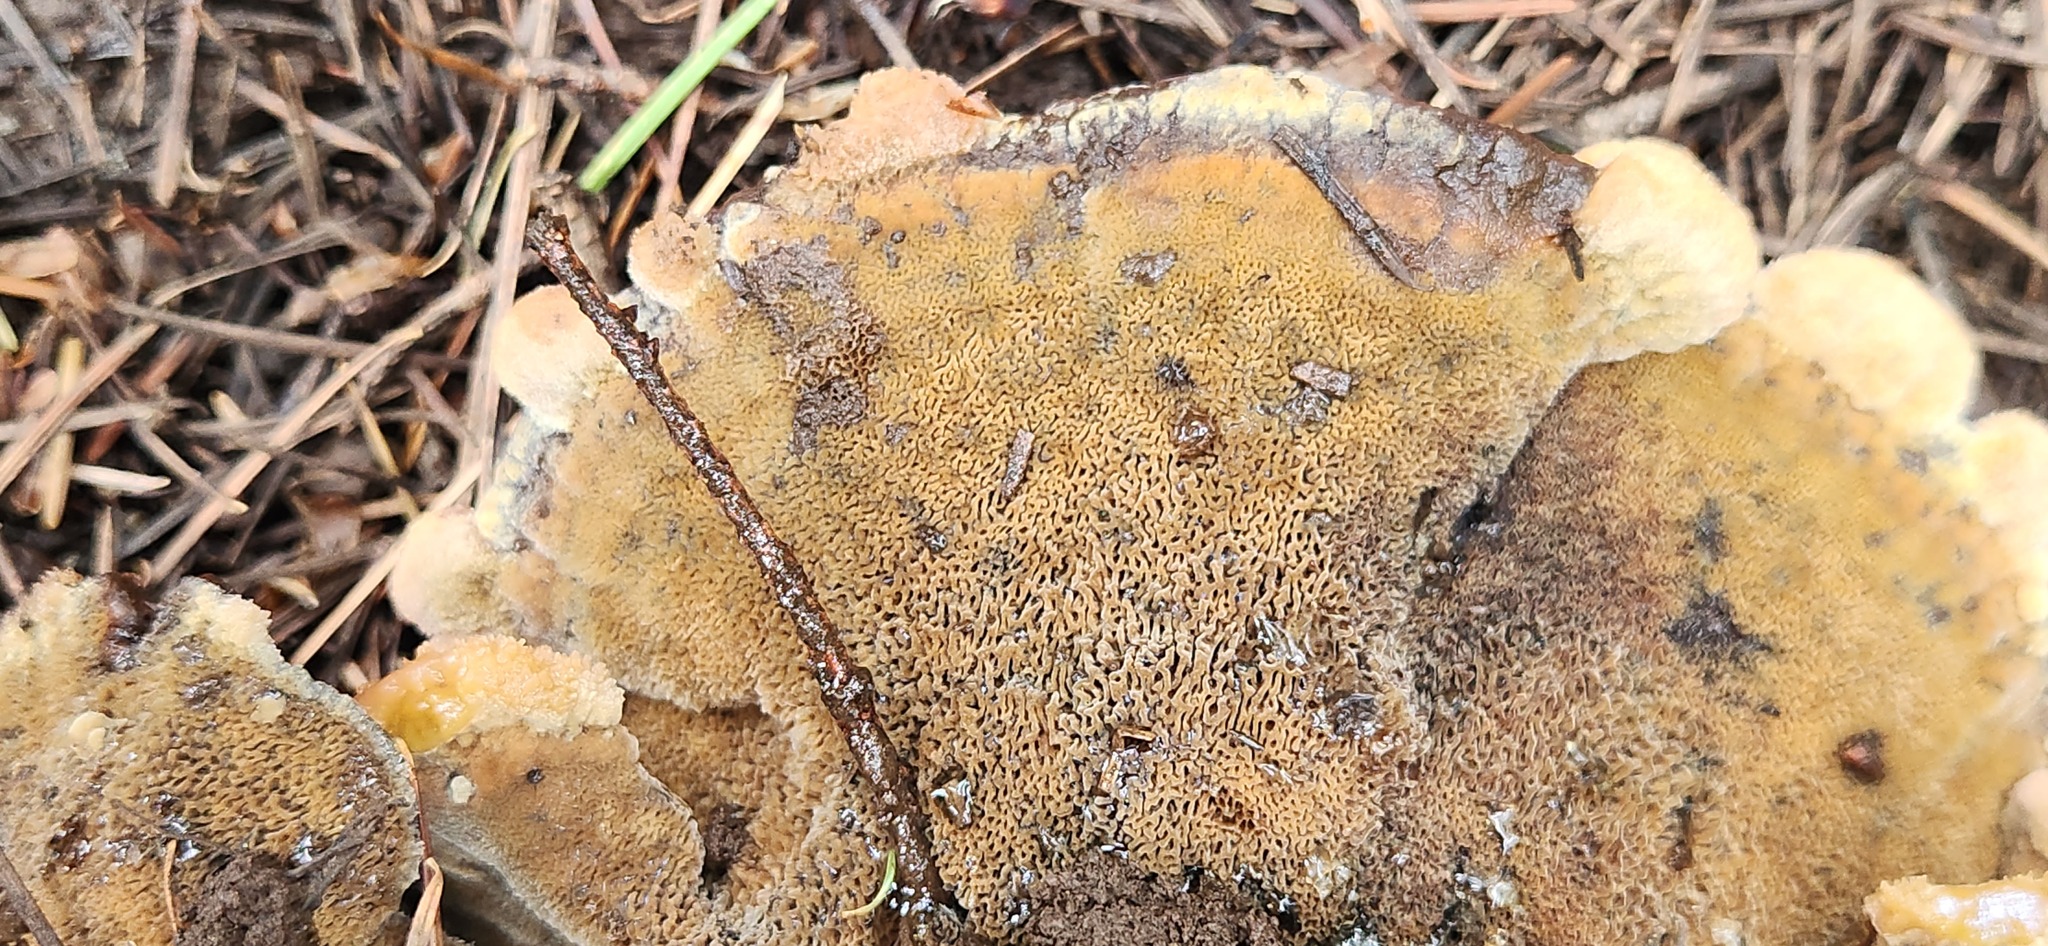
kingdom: Fungi
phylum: Basidiomycota
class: Agaricomycetes
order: Polyporales
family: Laetiporaceae
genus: Phaeolus
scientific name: Phaeolus schweinitzii
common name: Dyer's mazegill
